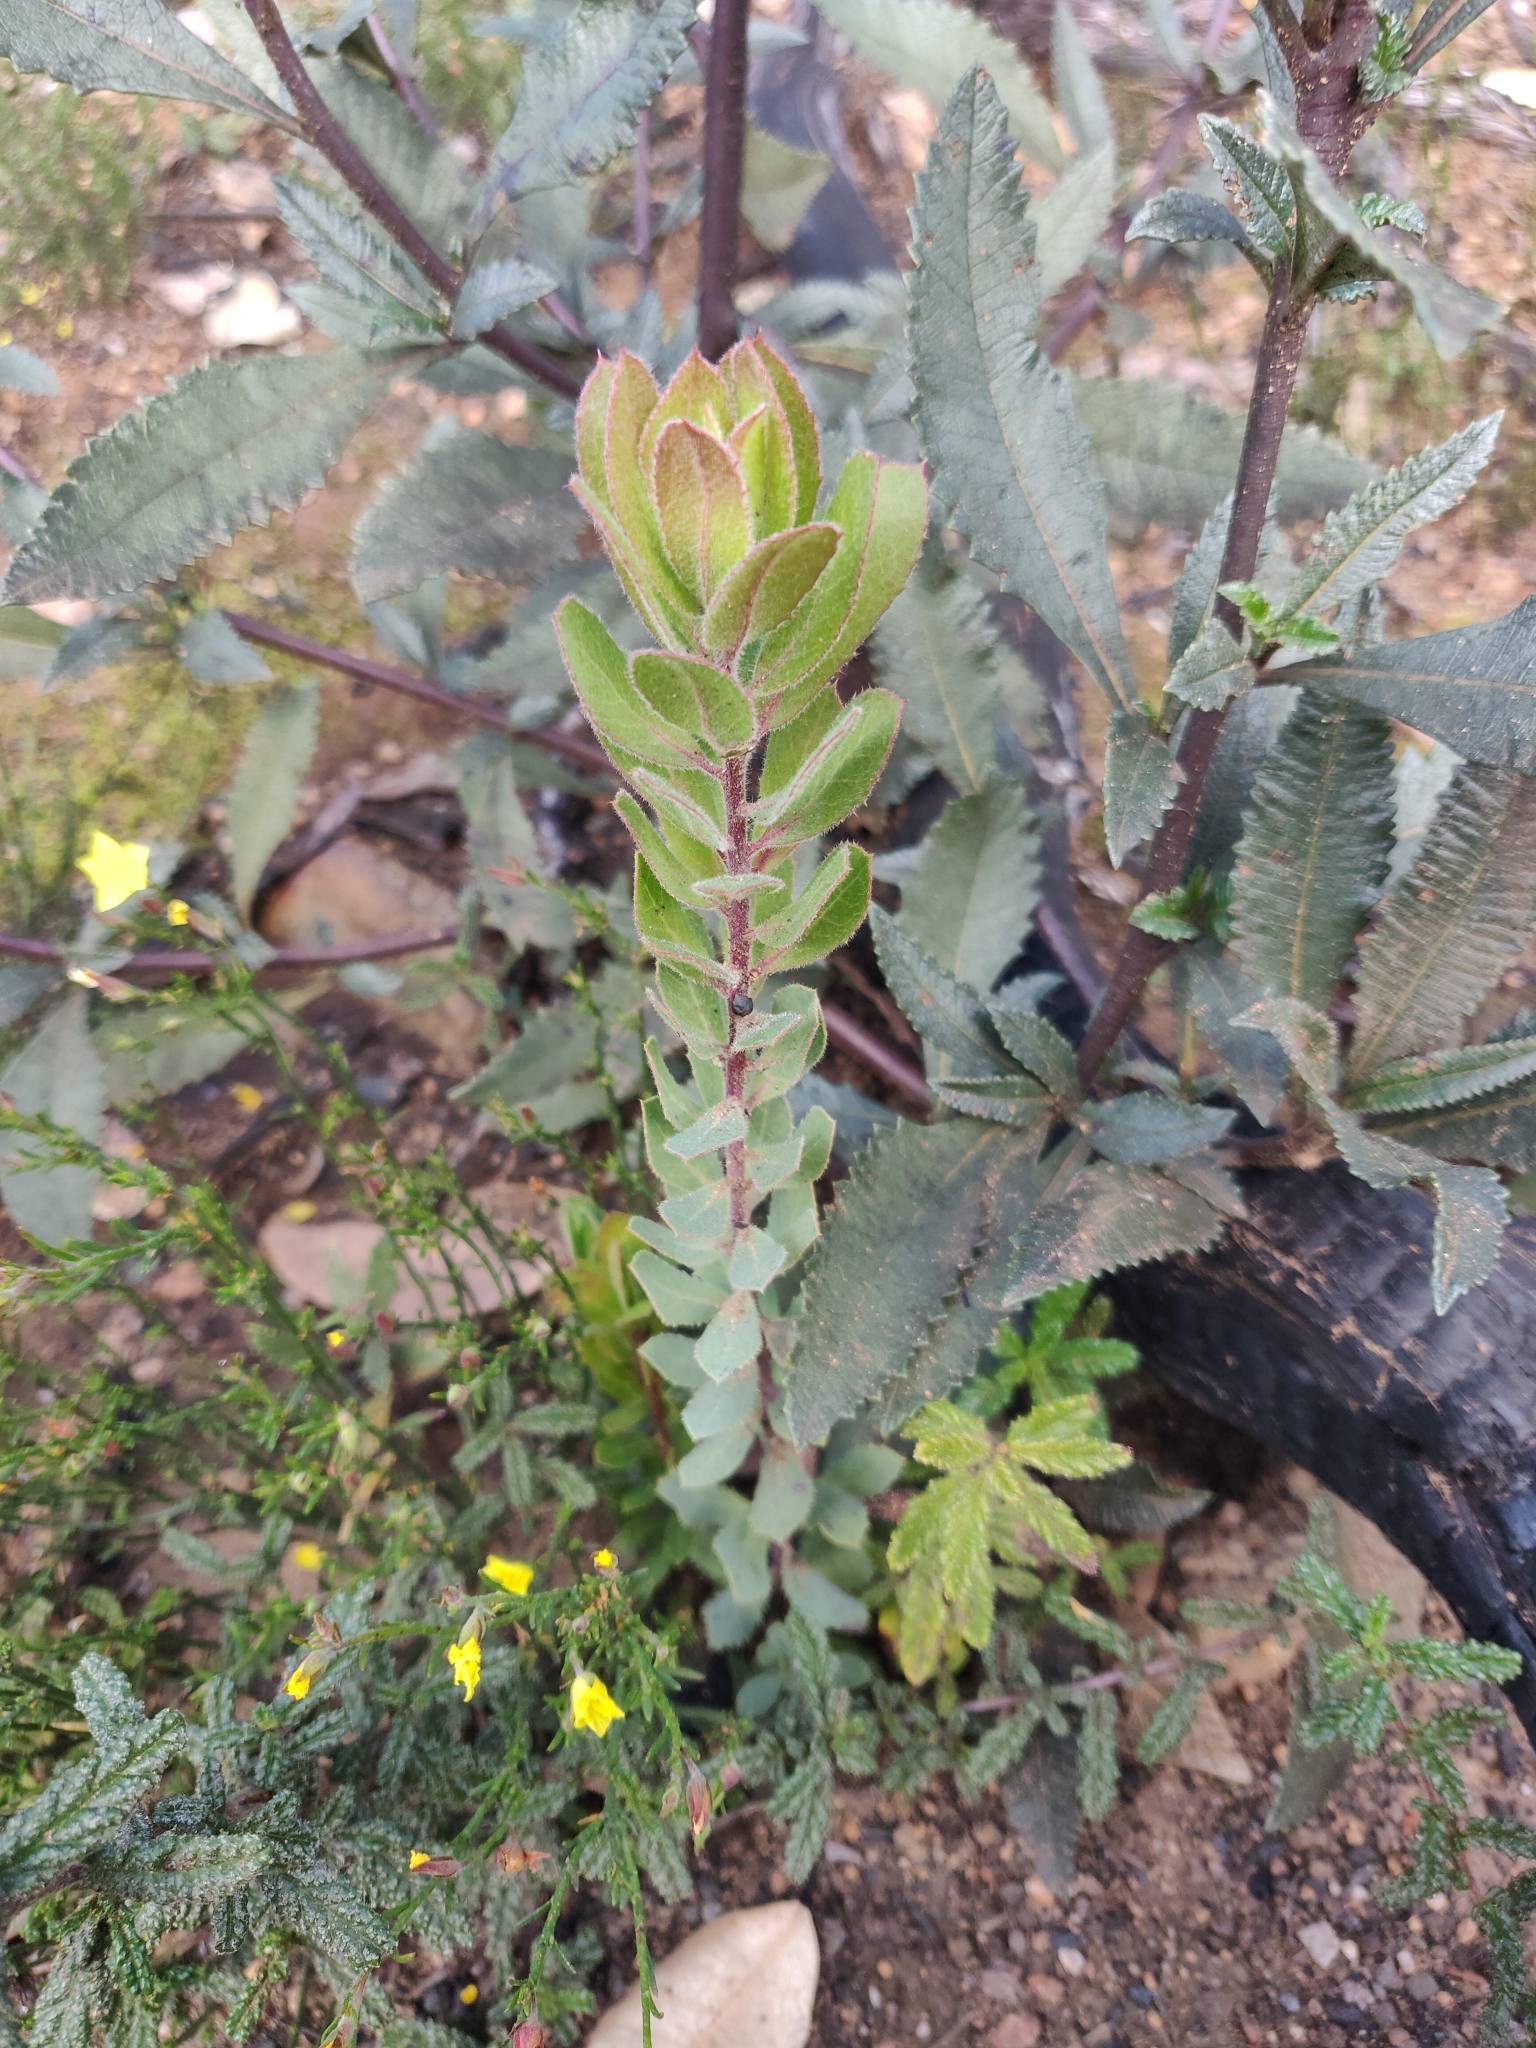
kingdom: Plantae
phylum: Tracheophyta
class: Magnoliopsida
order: Ericales
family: Ericaceae
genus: Arctostaphylos
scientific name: Arctostaphylos crustacea
